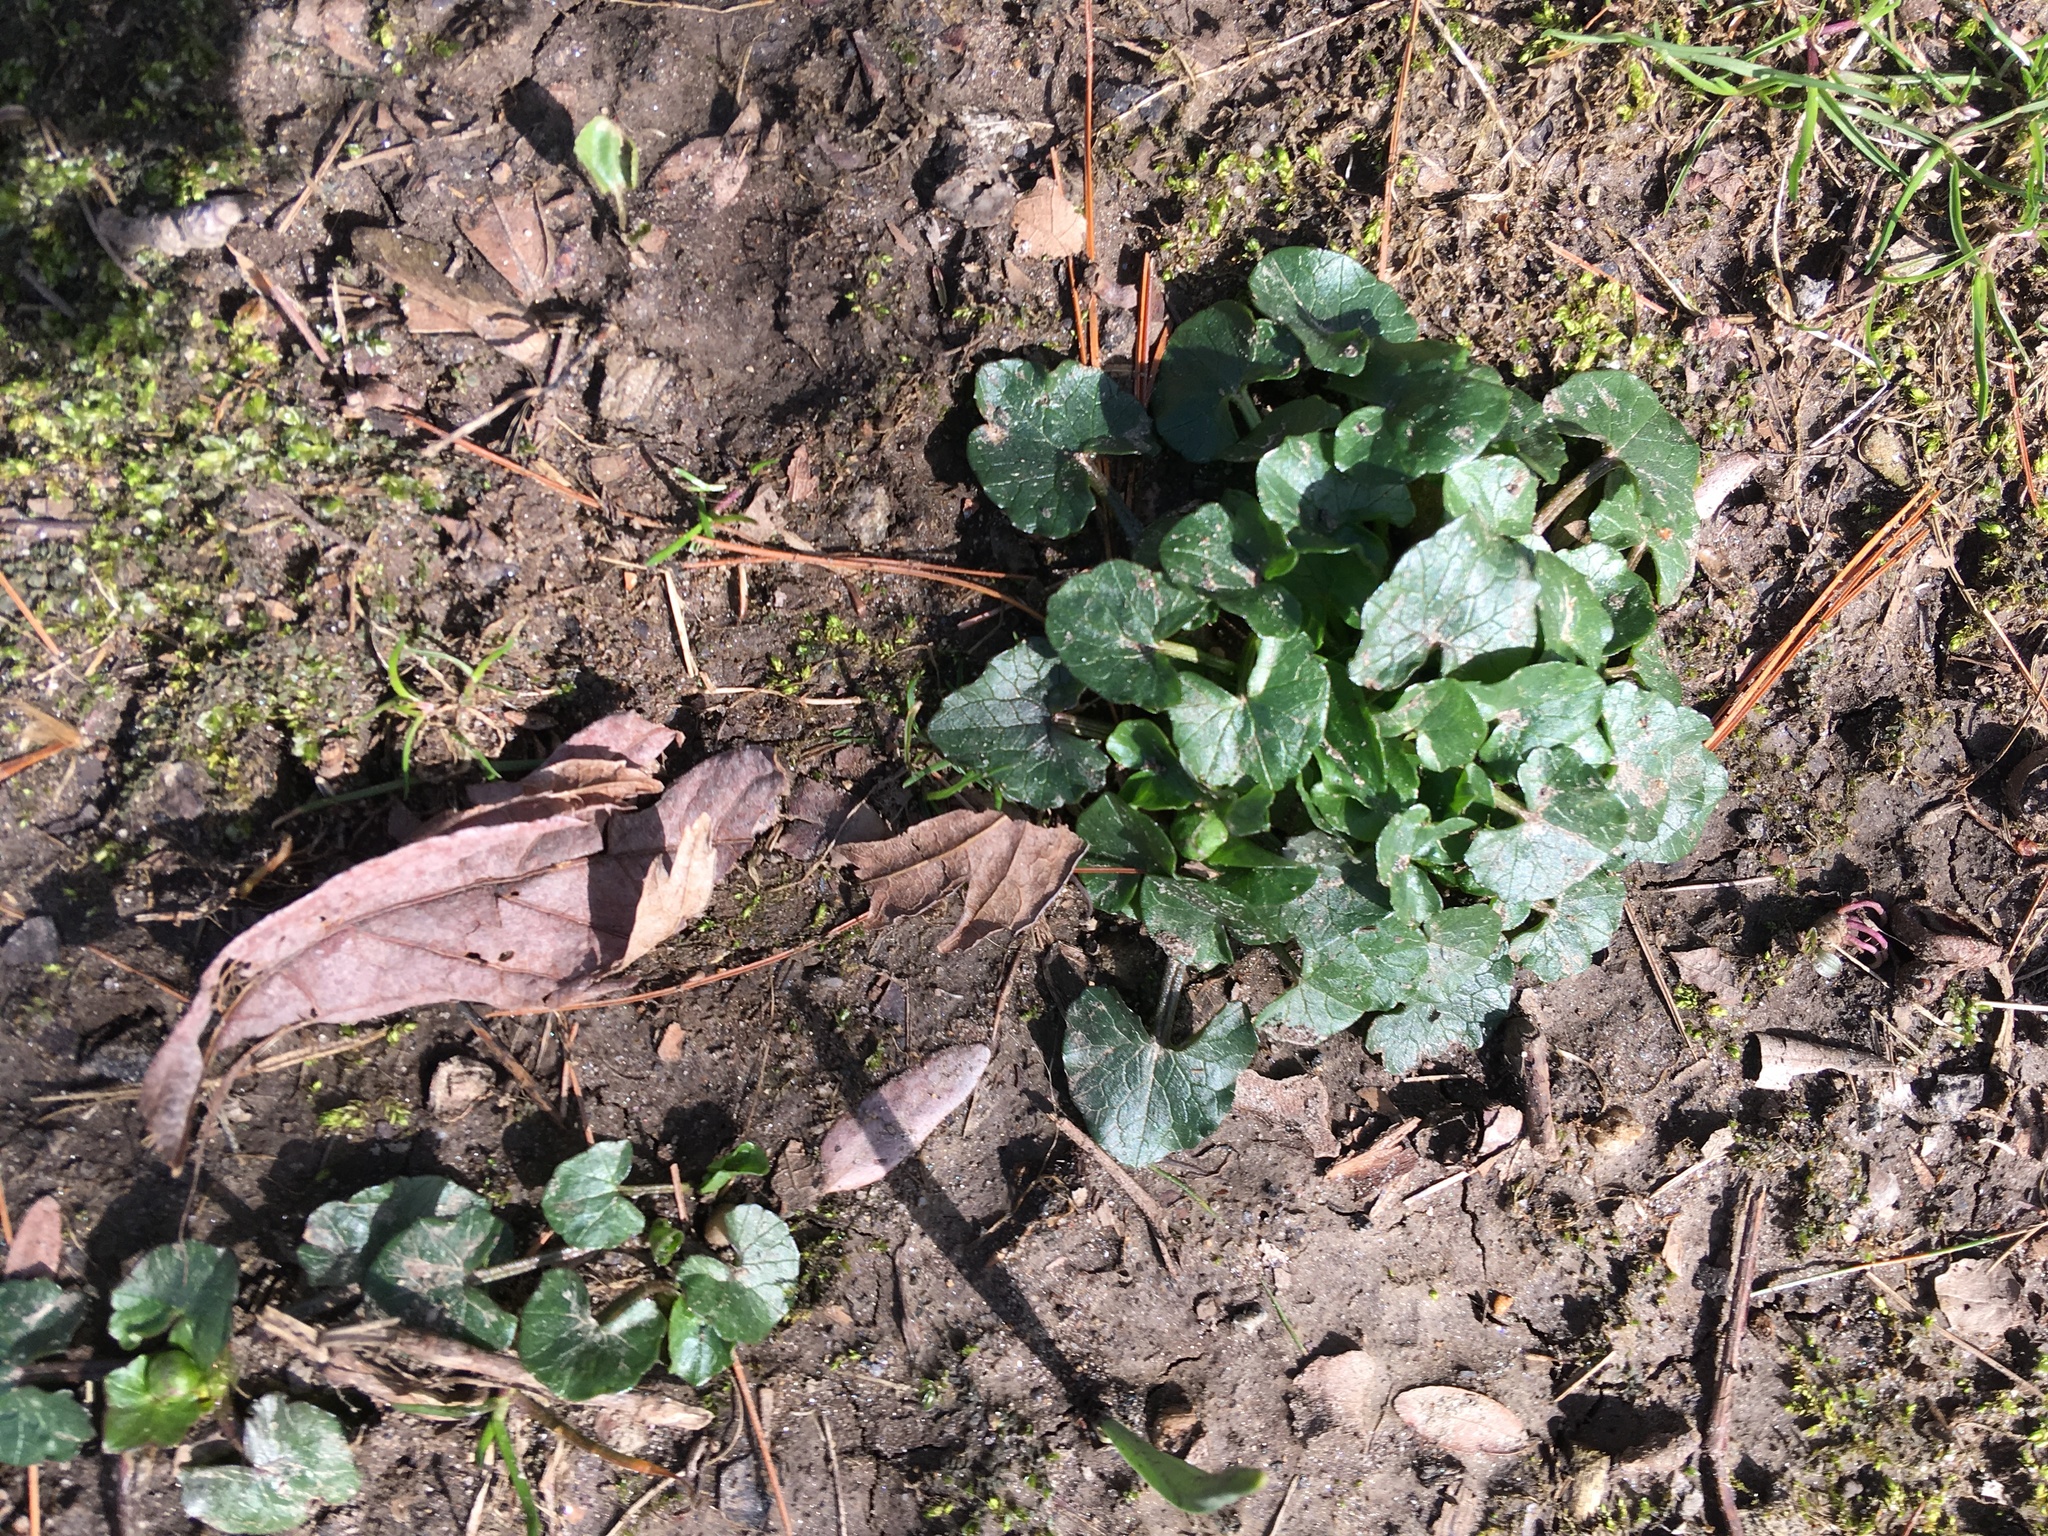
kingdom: Plantae
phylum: Tracheophyta
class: Magnoliopsida
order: Ranunculales
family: Ranunculaceae
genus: Ficaria
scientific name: Ficaria verna
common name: Lesser celandine
